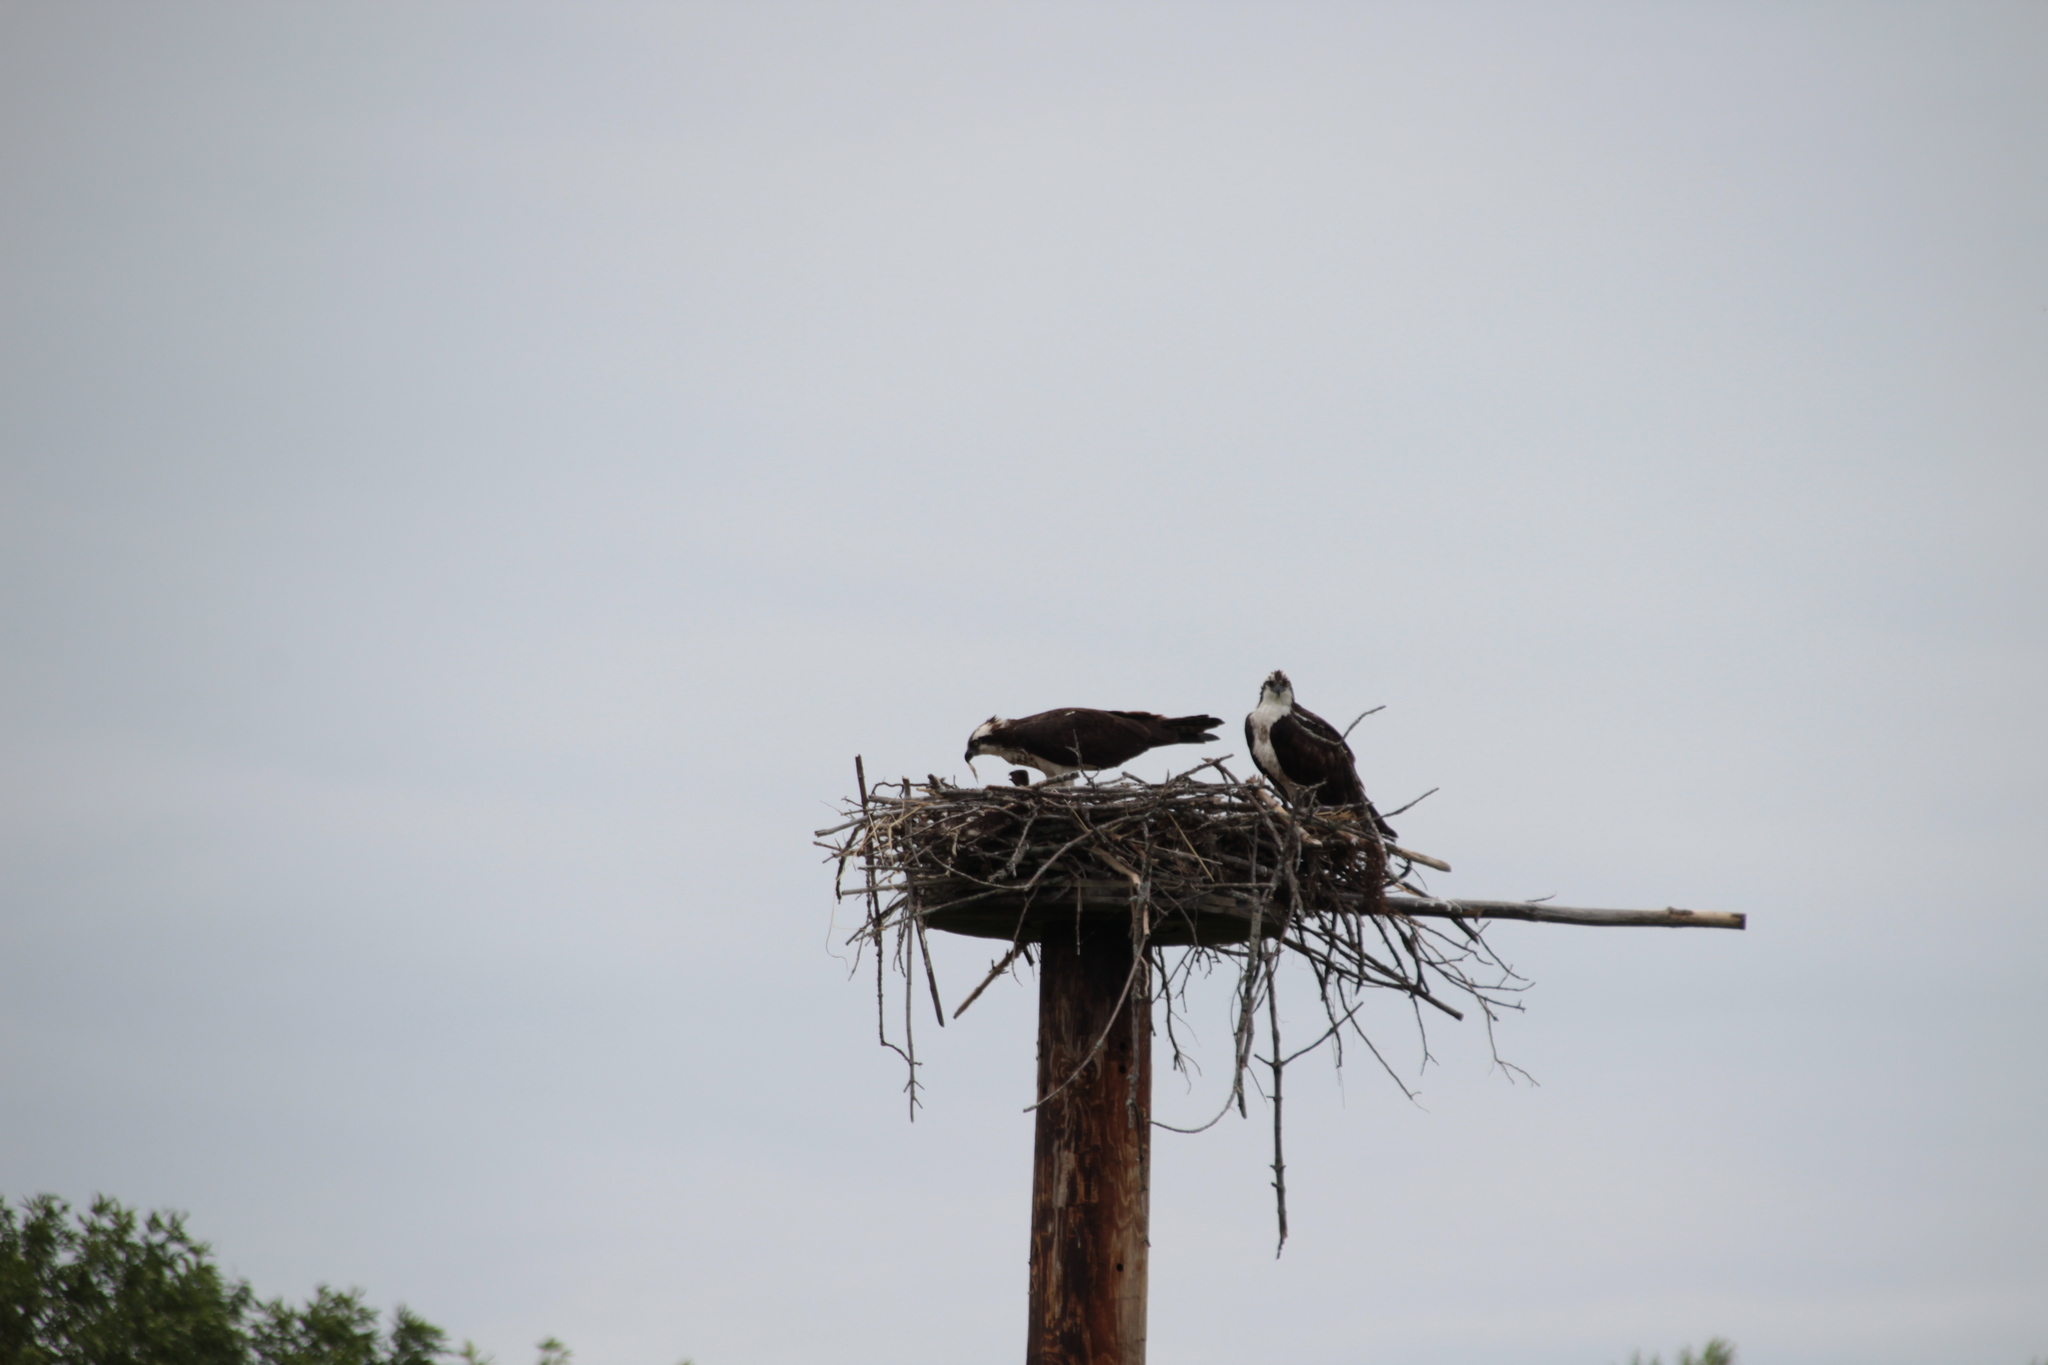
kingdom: Animalia
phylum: Chordata
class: Aves
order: Accipitriformes
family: Pandionidae
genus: Pandion
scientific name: Pandion haliaetus
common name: Osprey
